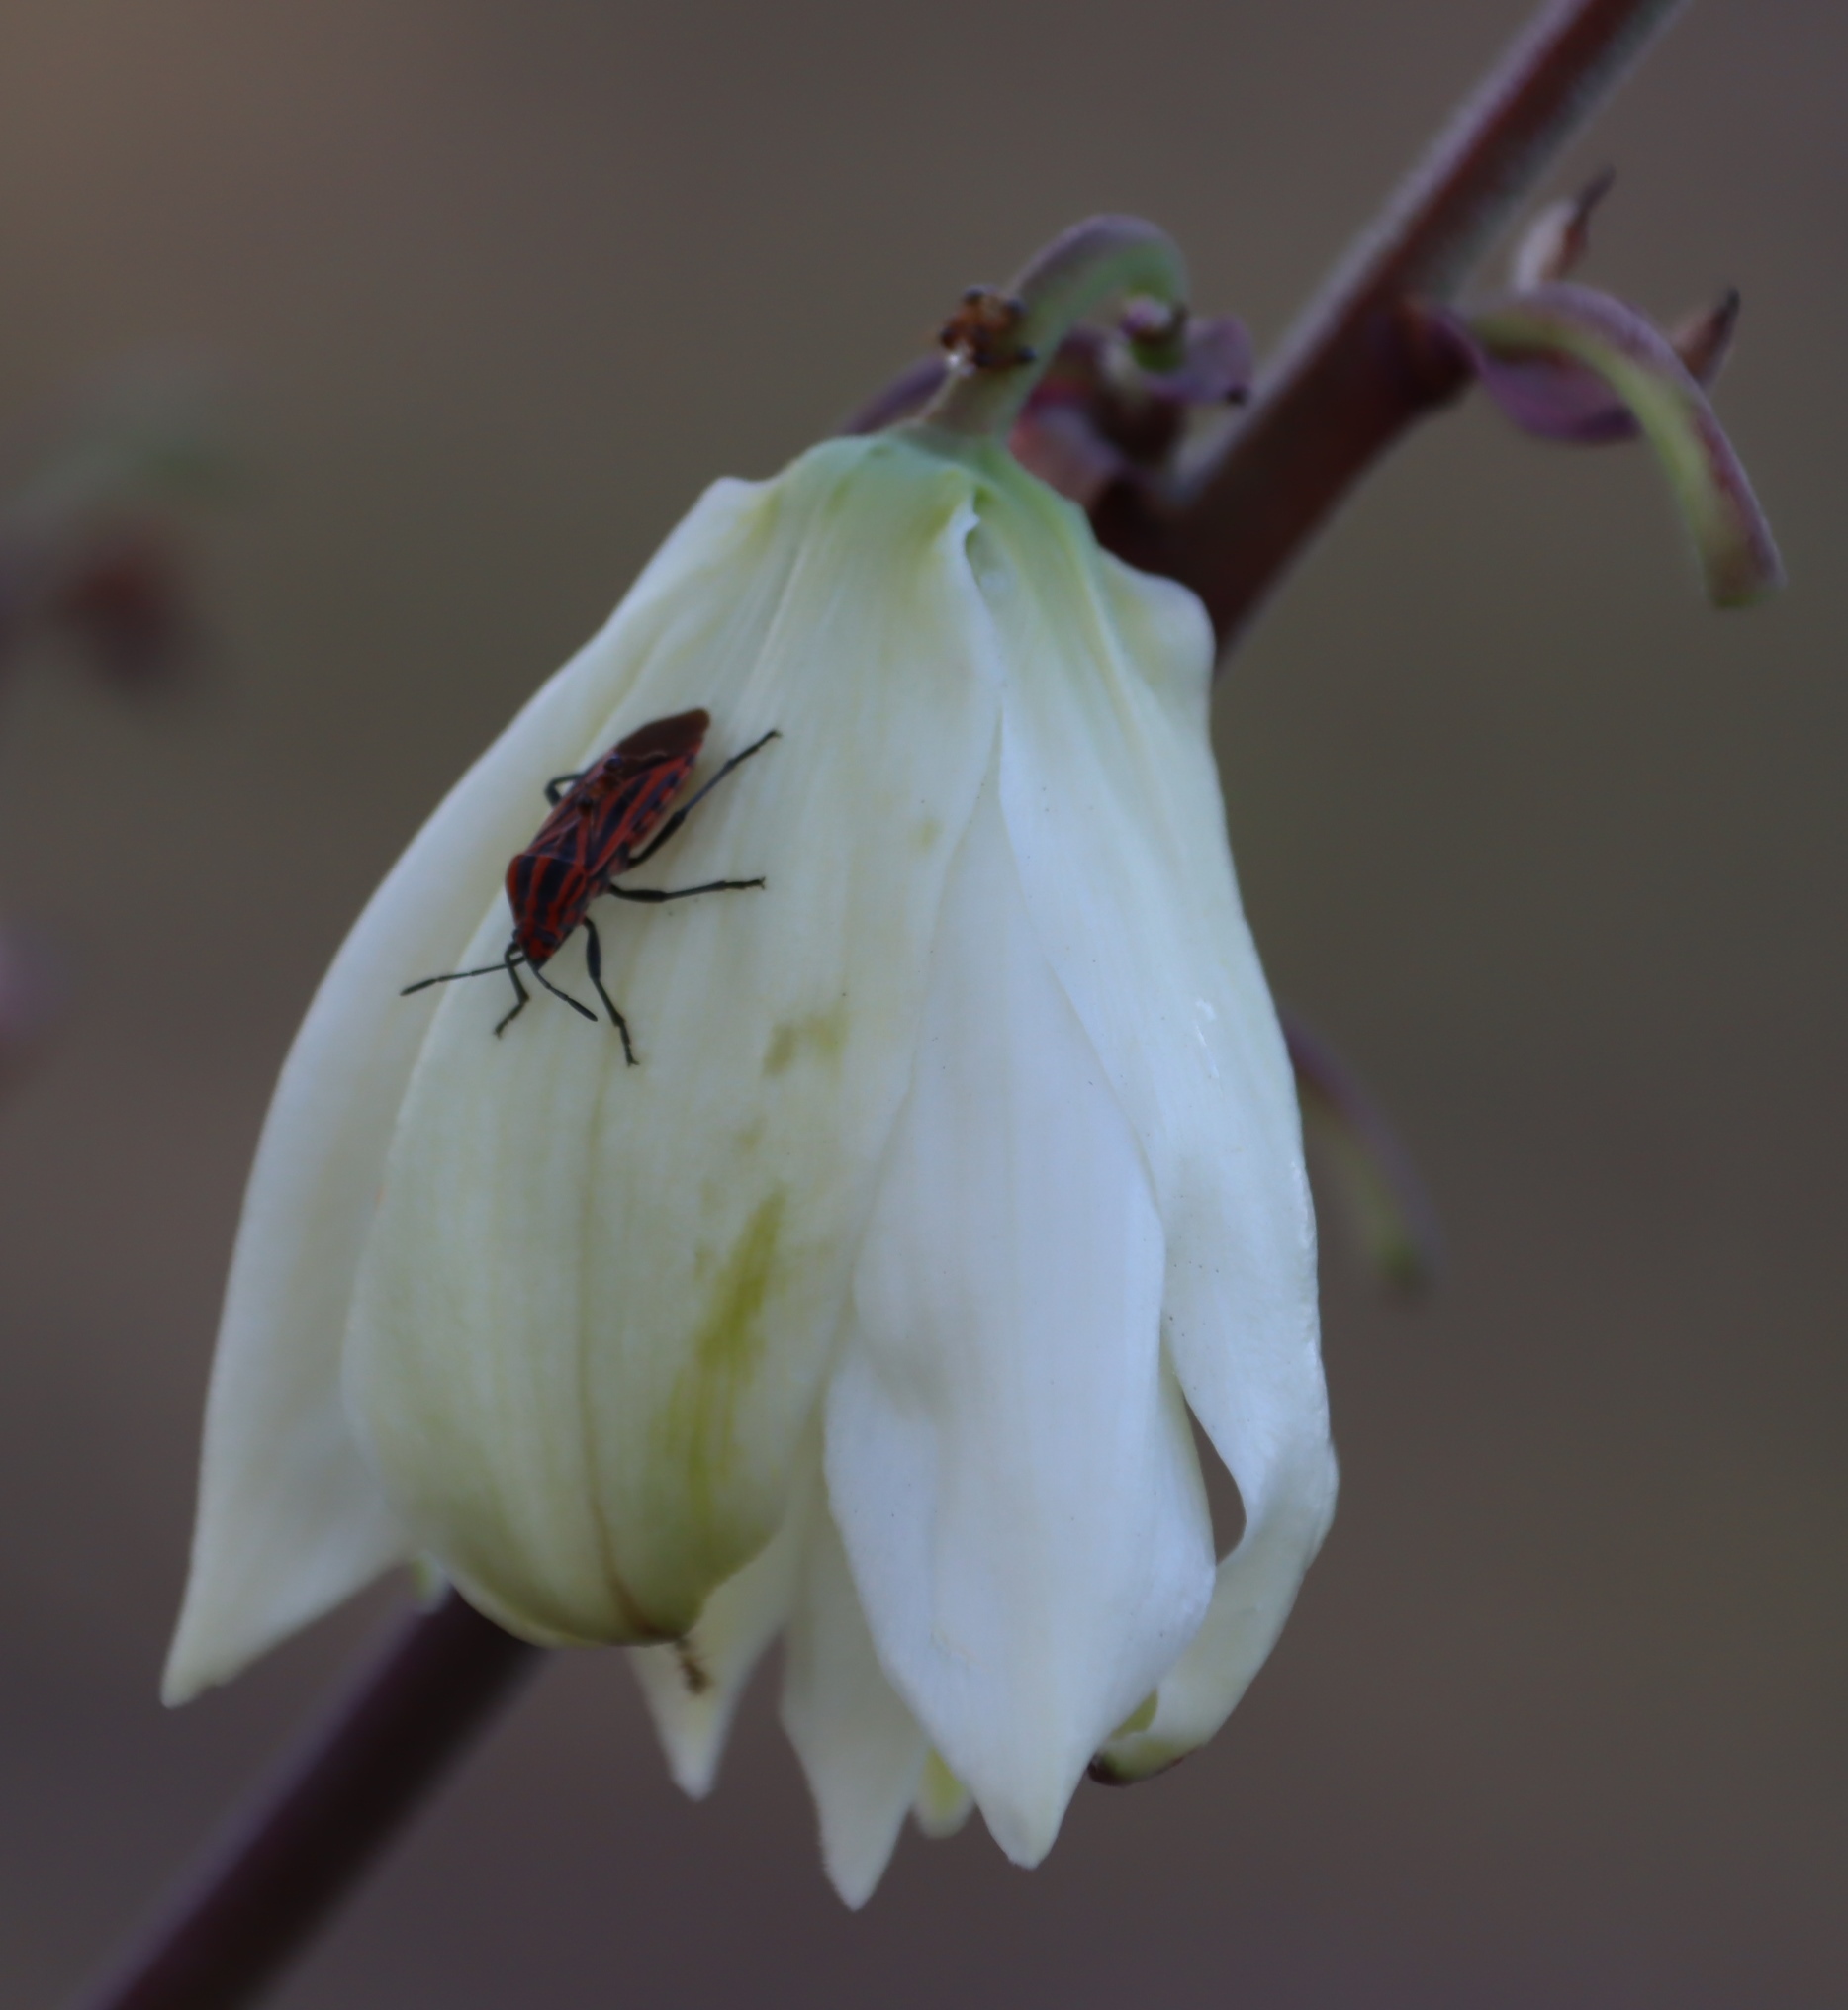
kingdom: Plantae
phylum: Tracheophyta
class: Liliopsida
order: Asparagales
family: Asparagaceae
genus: Yucca
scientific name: Yucca gloriosa
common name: Spanish-dagger
